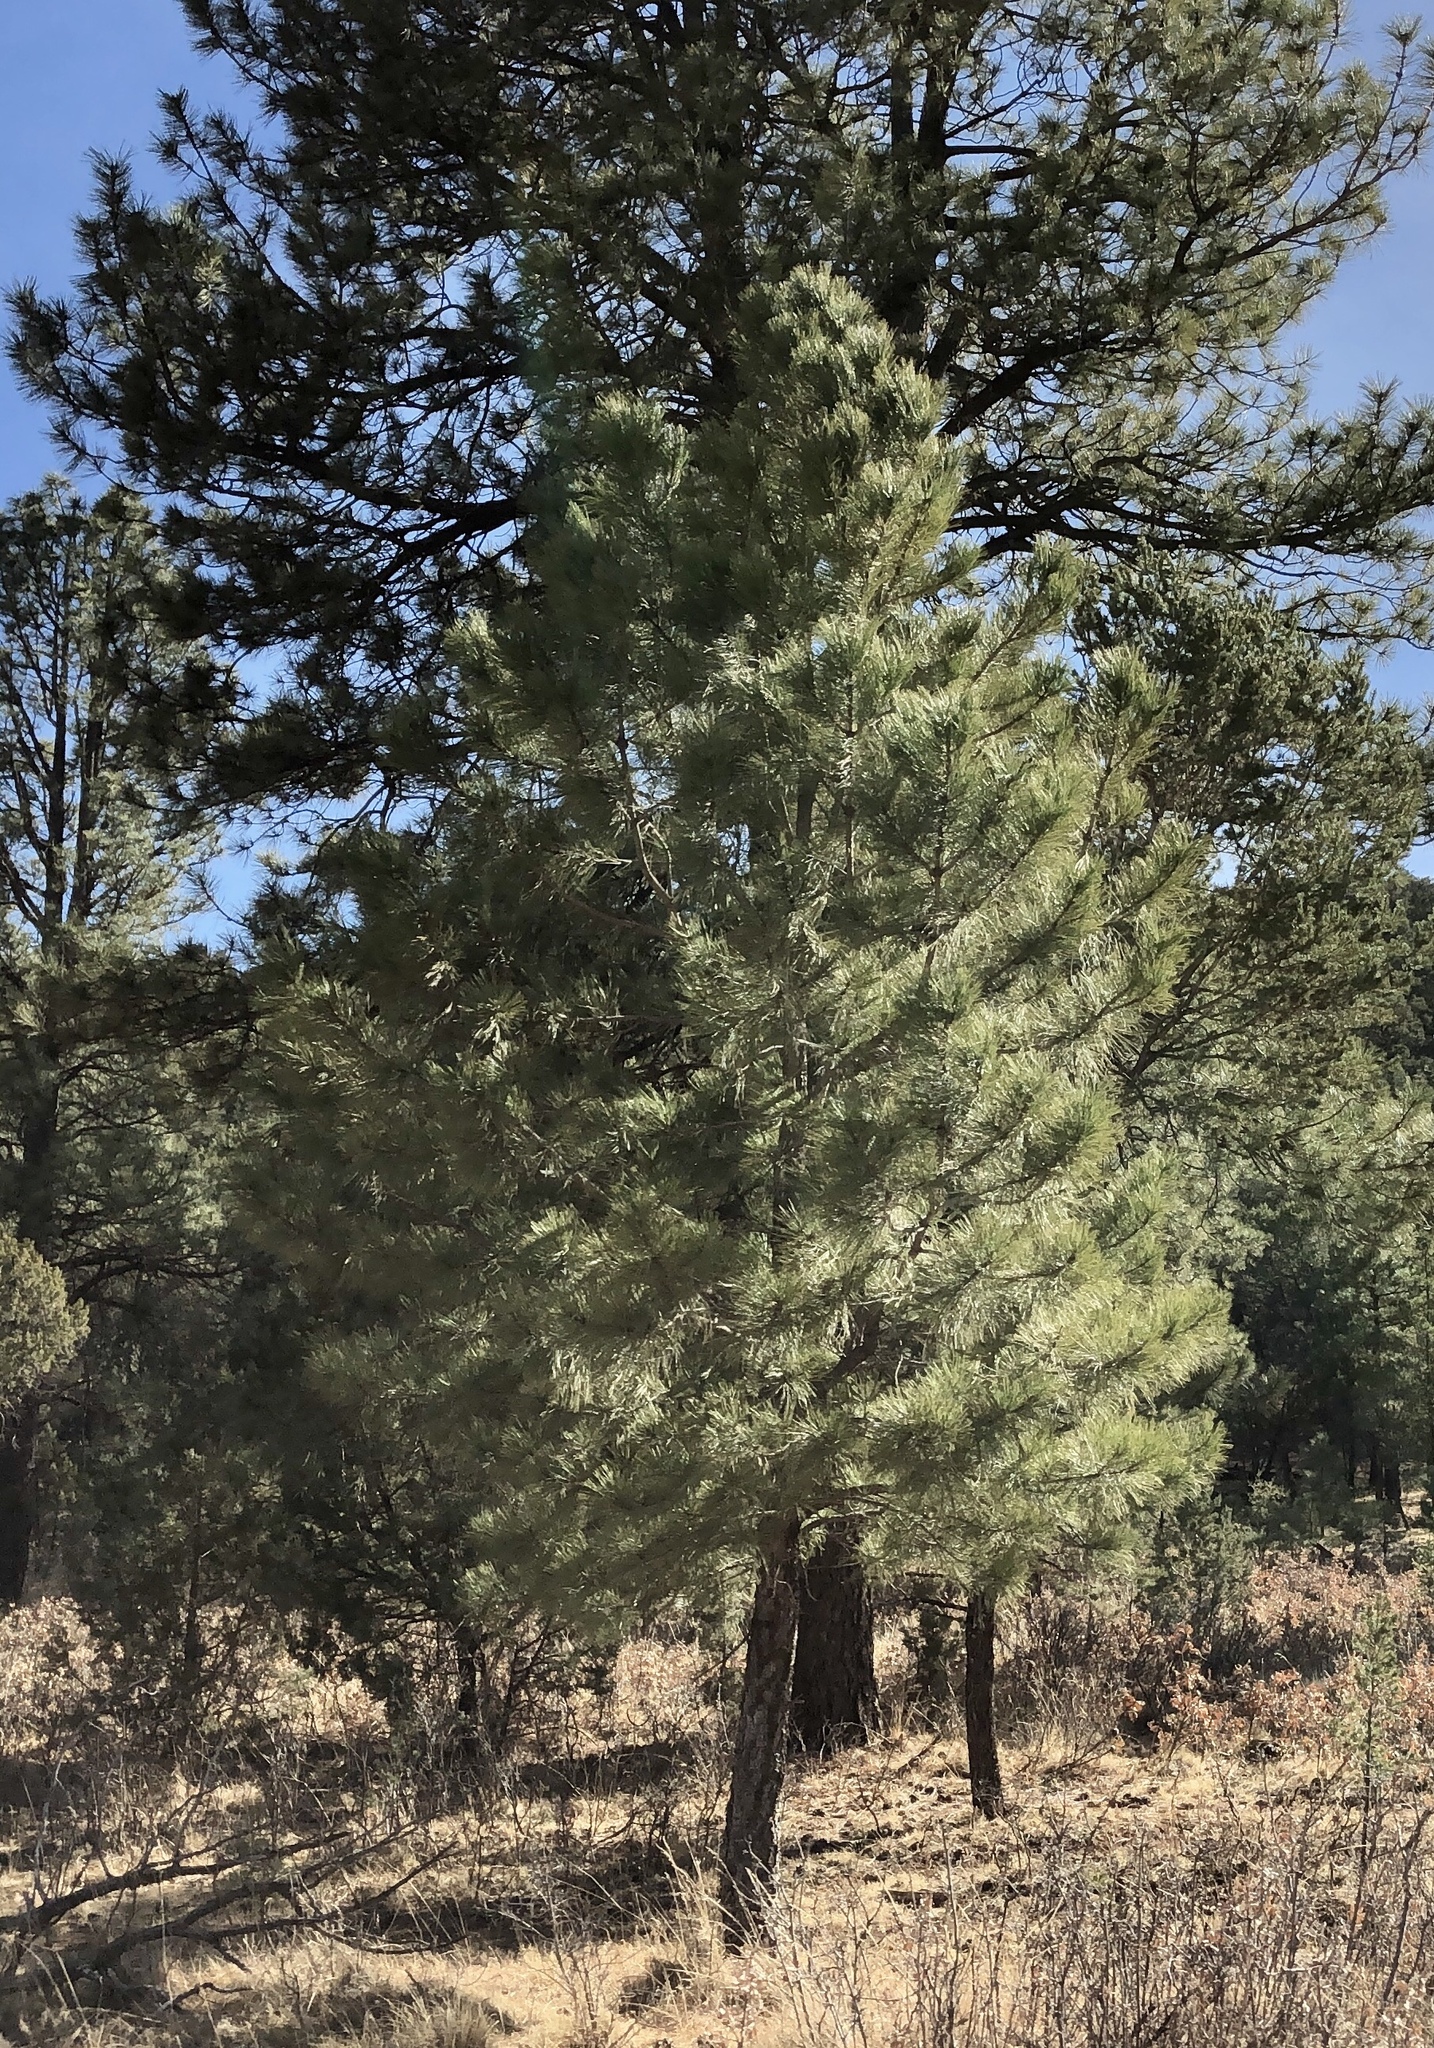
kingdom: Plantae
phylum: Tracheophyta
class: Pinopsida
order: Pinales
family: Pinaceae
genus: Pinus
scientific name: Pinus ponderosa
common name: Western yellow-pine
